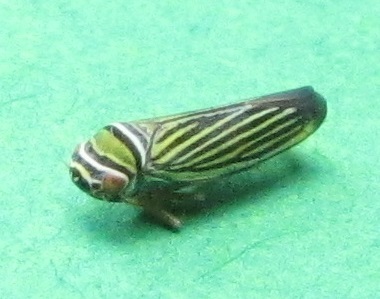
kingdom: Animalia
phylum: Arthropoda
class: Insecta
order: Hemiptera
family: Cicadellidae
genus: Tylozygus
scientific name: Tylozygus bifidus
